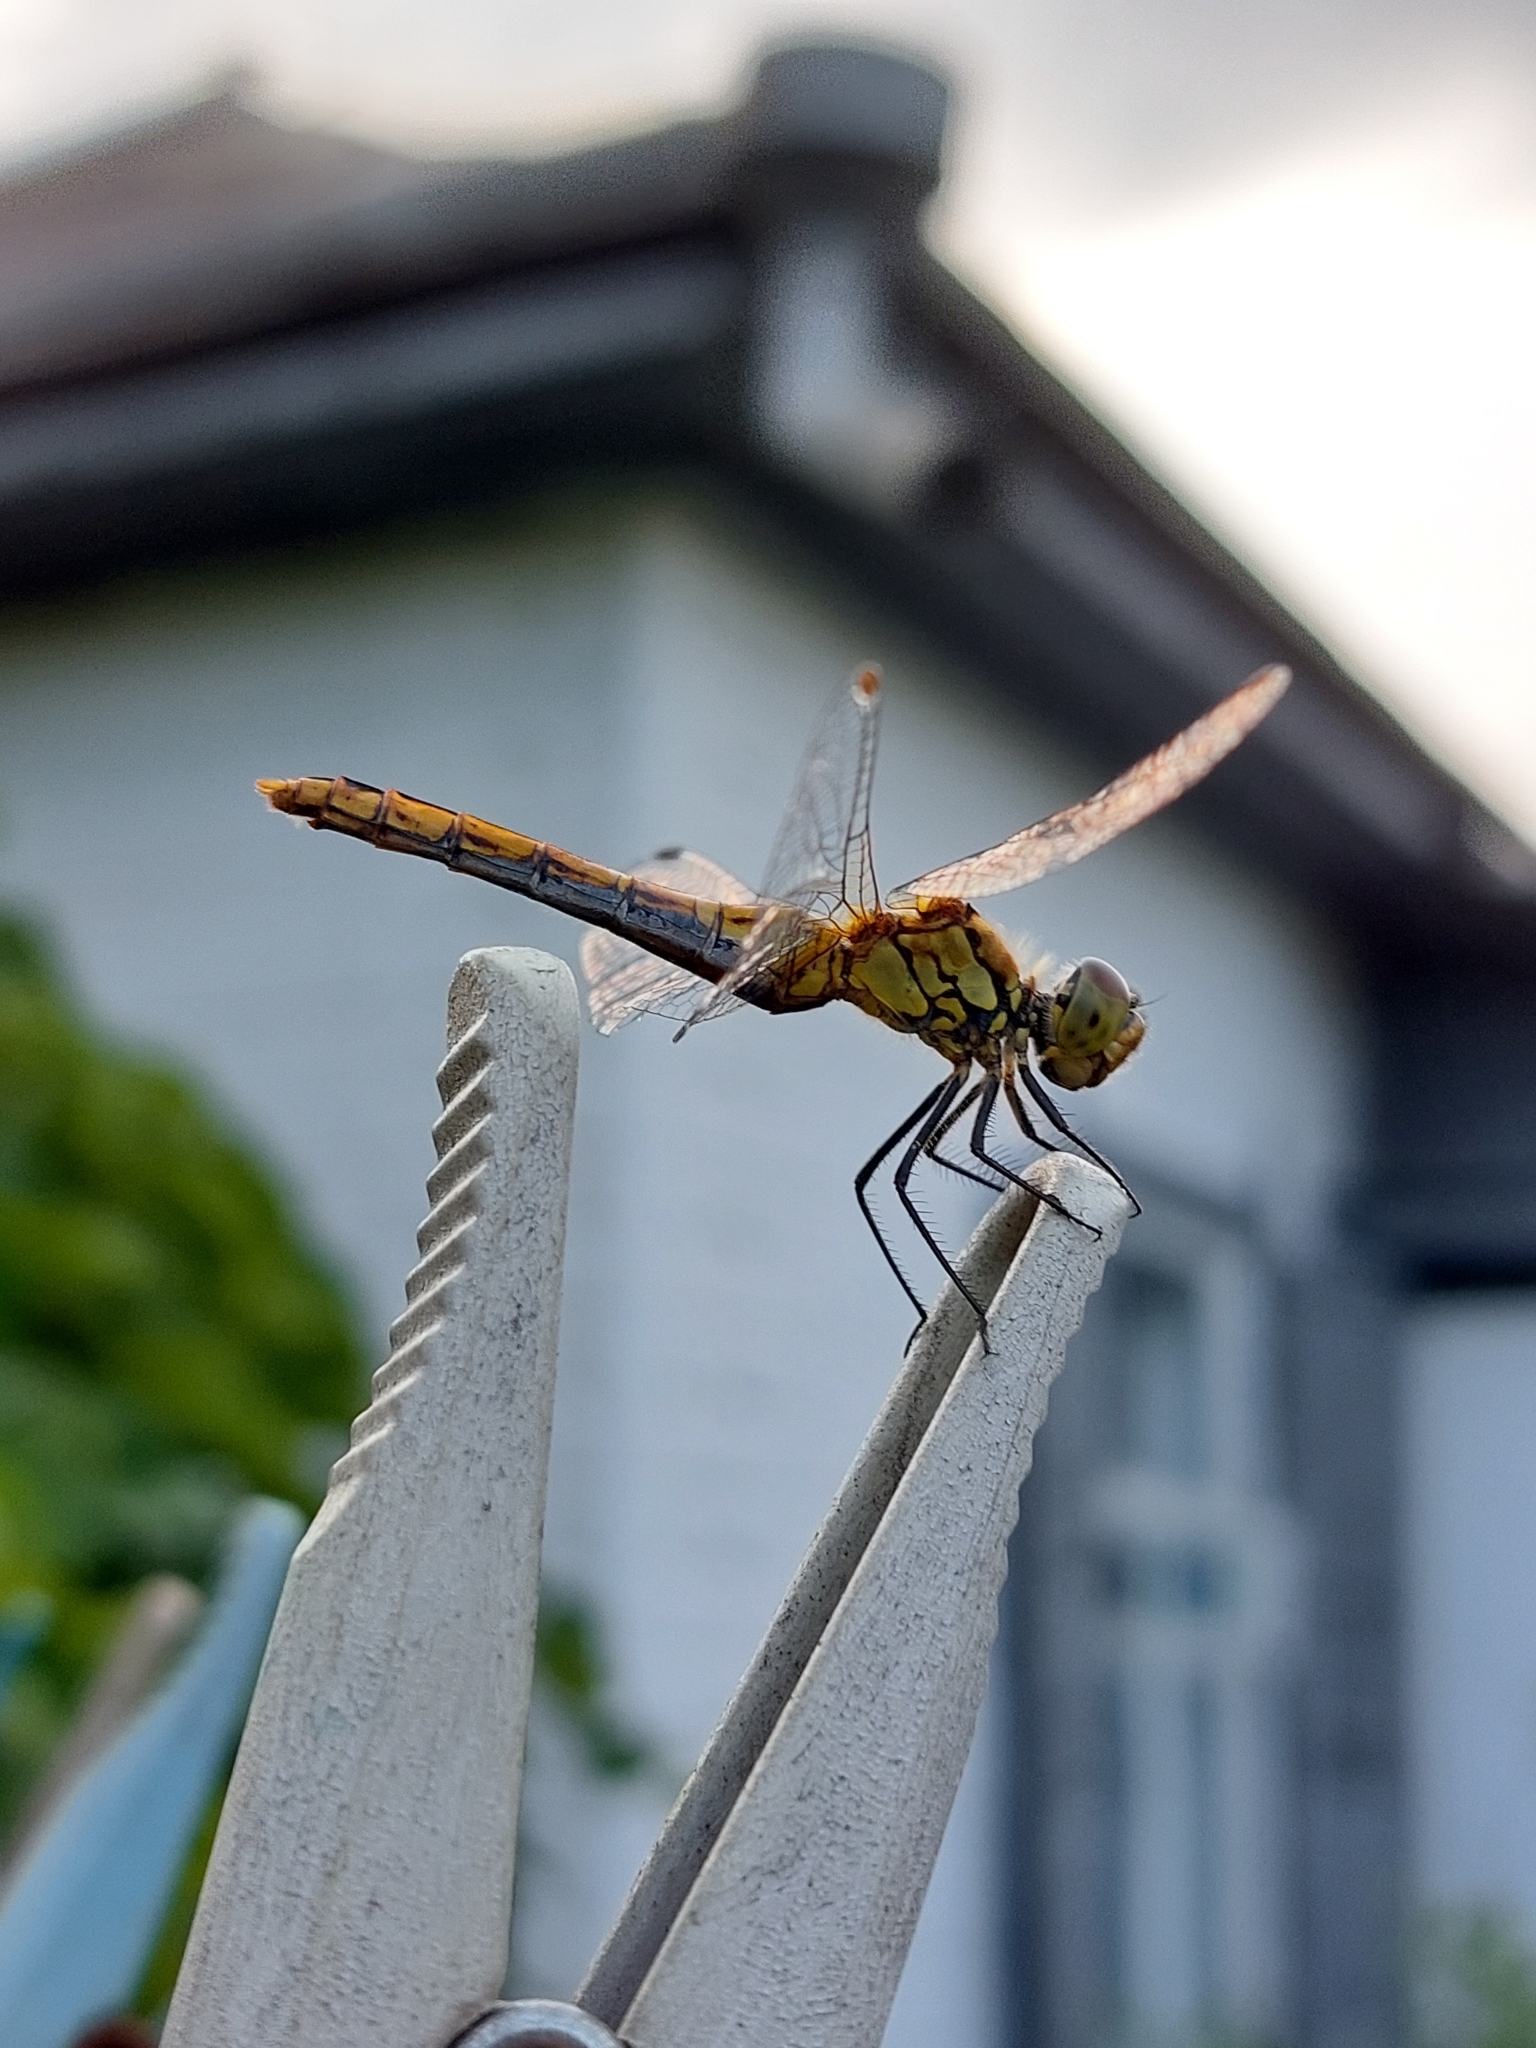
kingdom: Animalia
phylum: Arthropoda
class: Insecta
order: Odonata
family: Libellulidae
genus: Sympetrum
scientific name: Sympetrum sanguineum
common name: Ruddy darter
